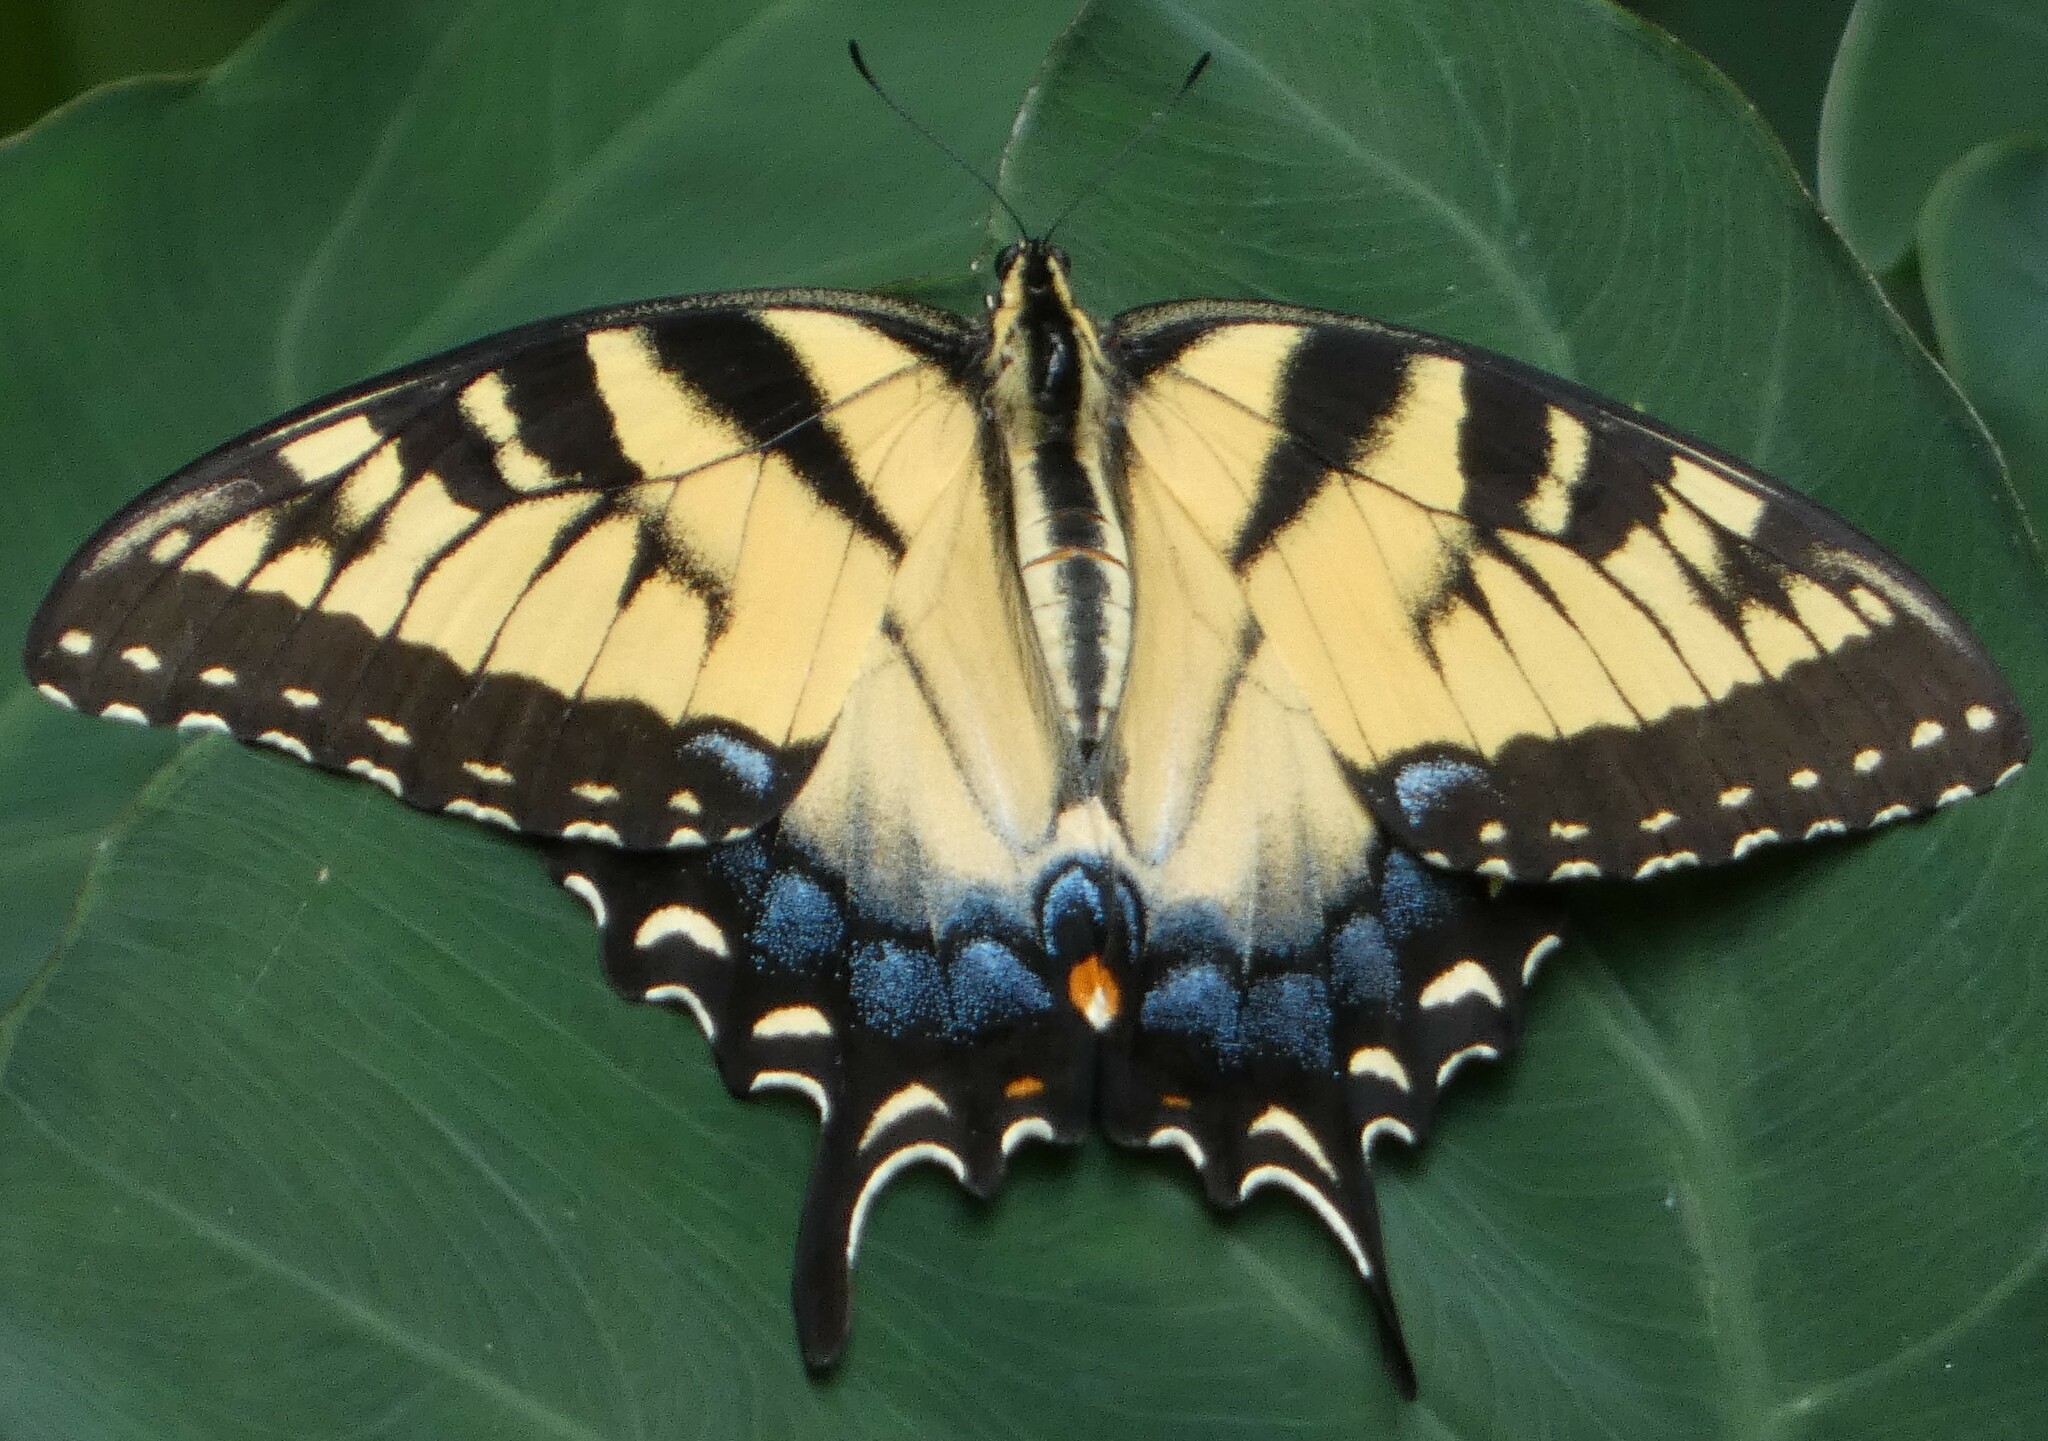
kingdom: Animalia
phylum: Arthropoda
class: Insecta
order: Lepidoptera
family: Papilionidae
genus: Papilio
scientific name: Papilio glaucus
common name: Tiger swallowtail
